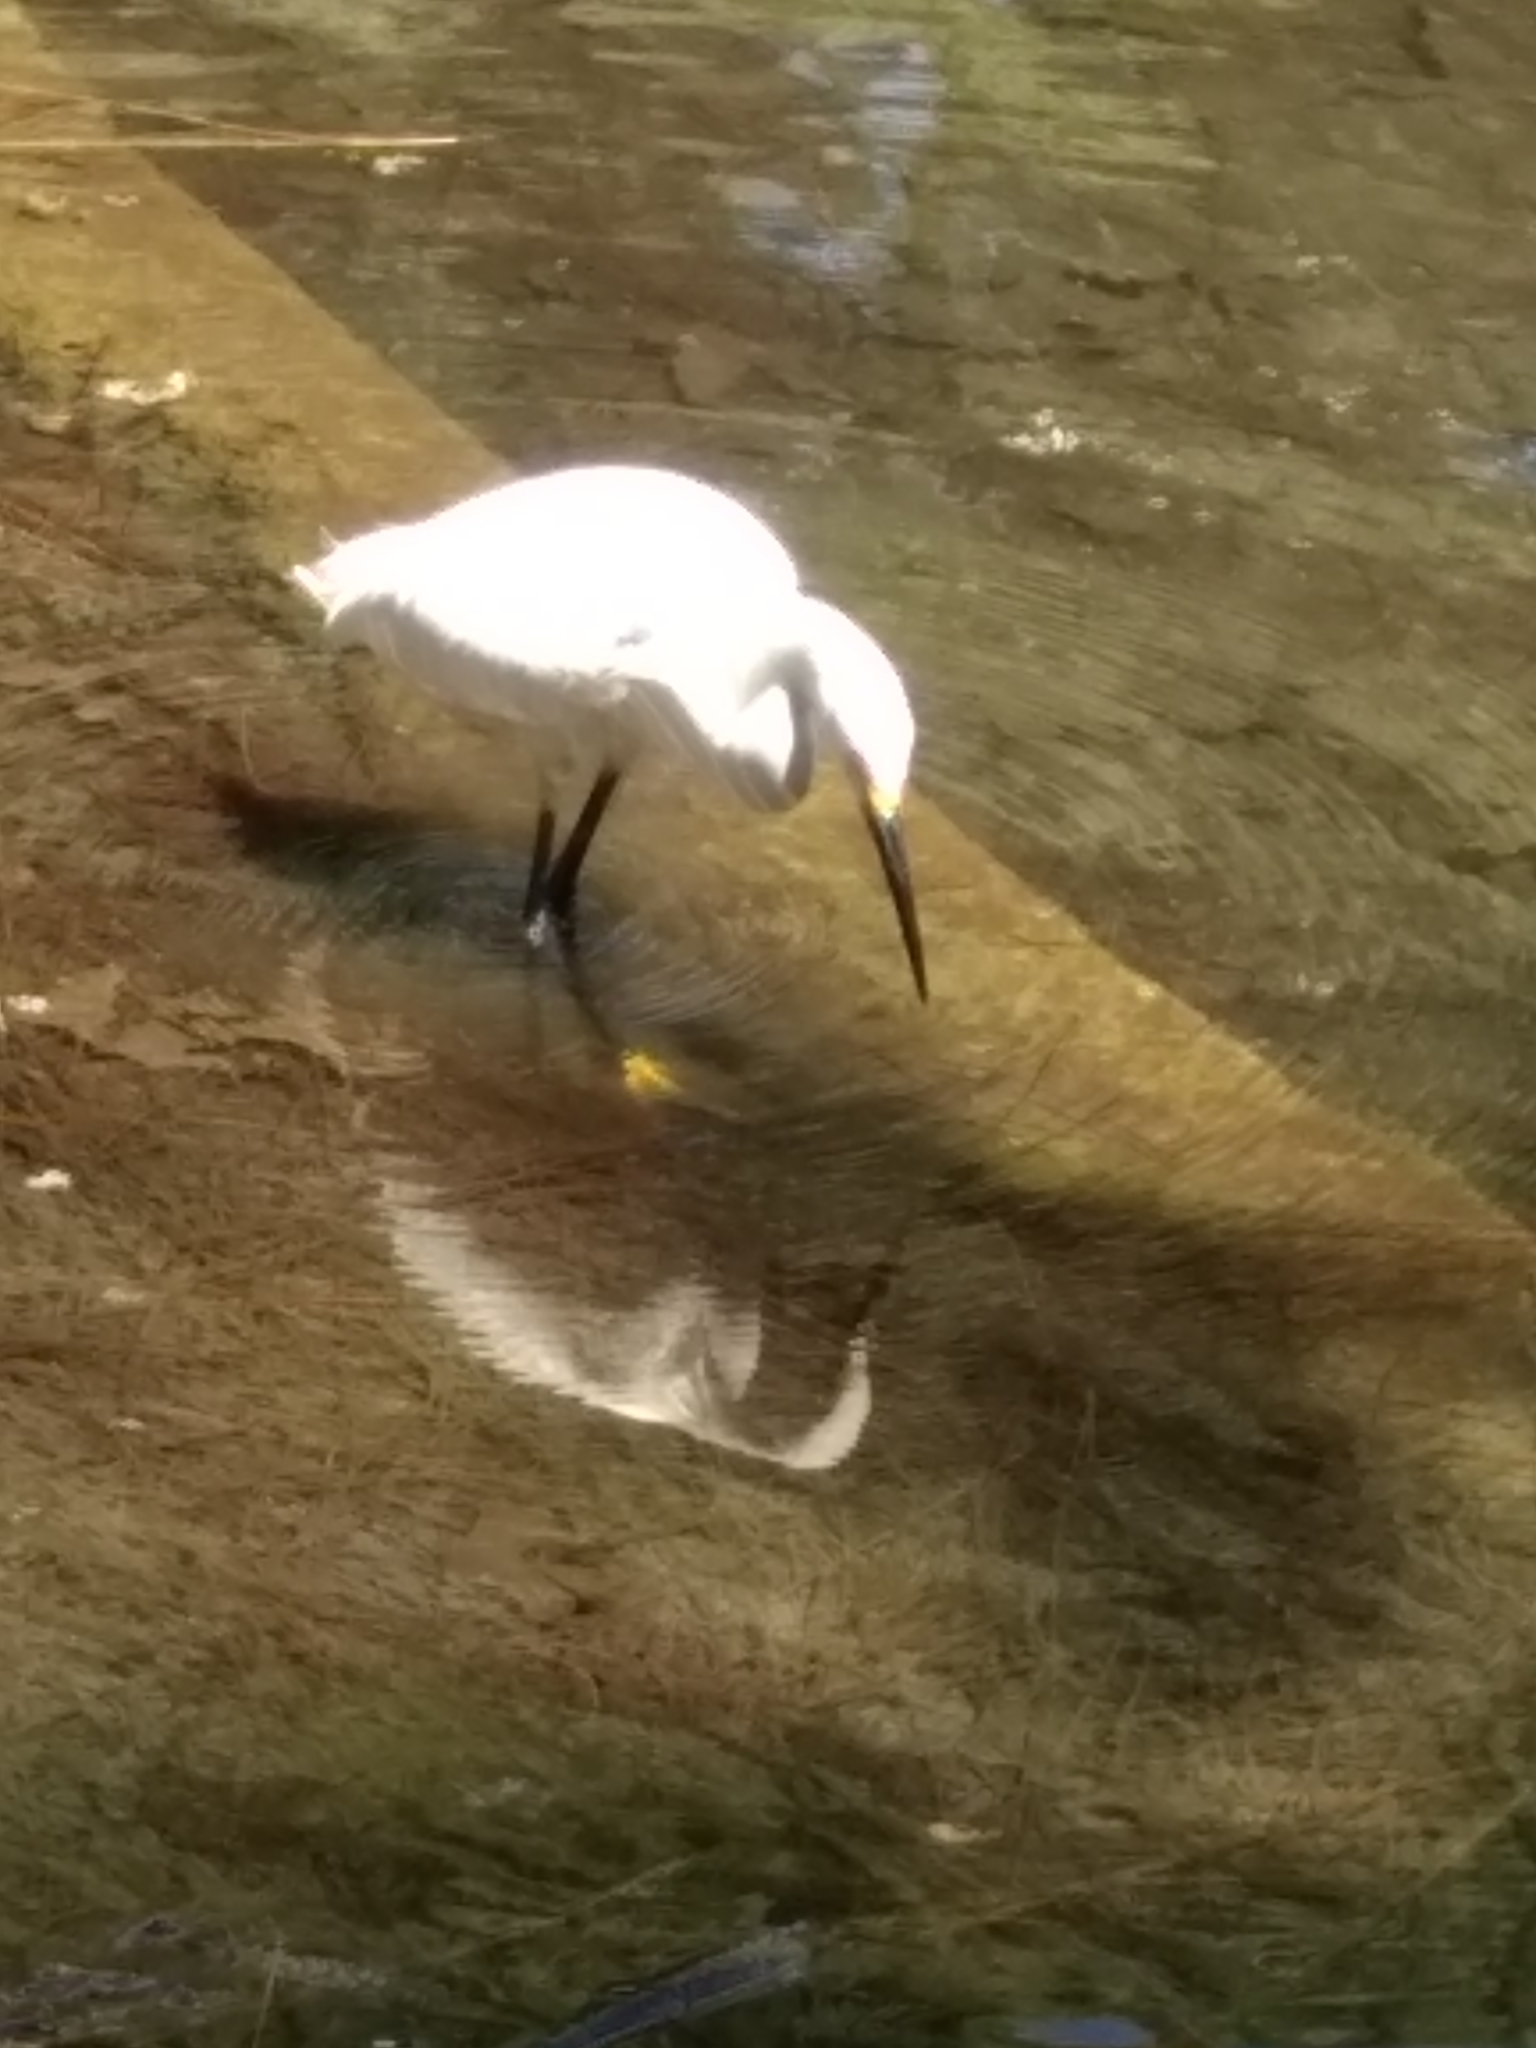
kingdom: Animalia
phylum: Chordata
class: Aves
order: Pelecaniformes
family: Ardeidae
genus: Egretta
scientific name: Egretta thula
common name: Snowy egret
